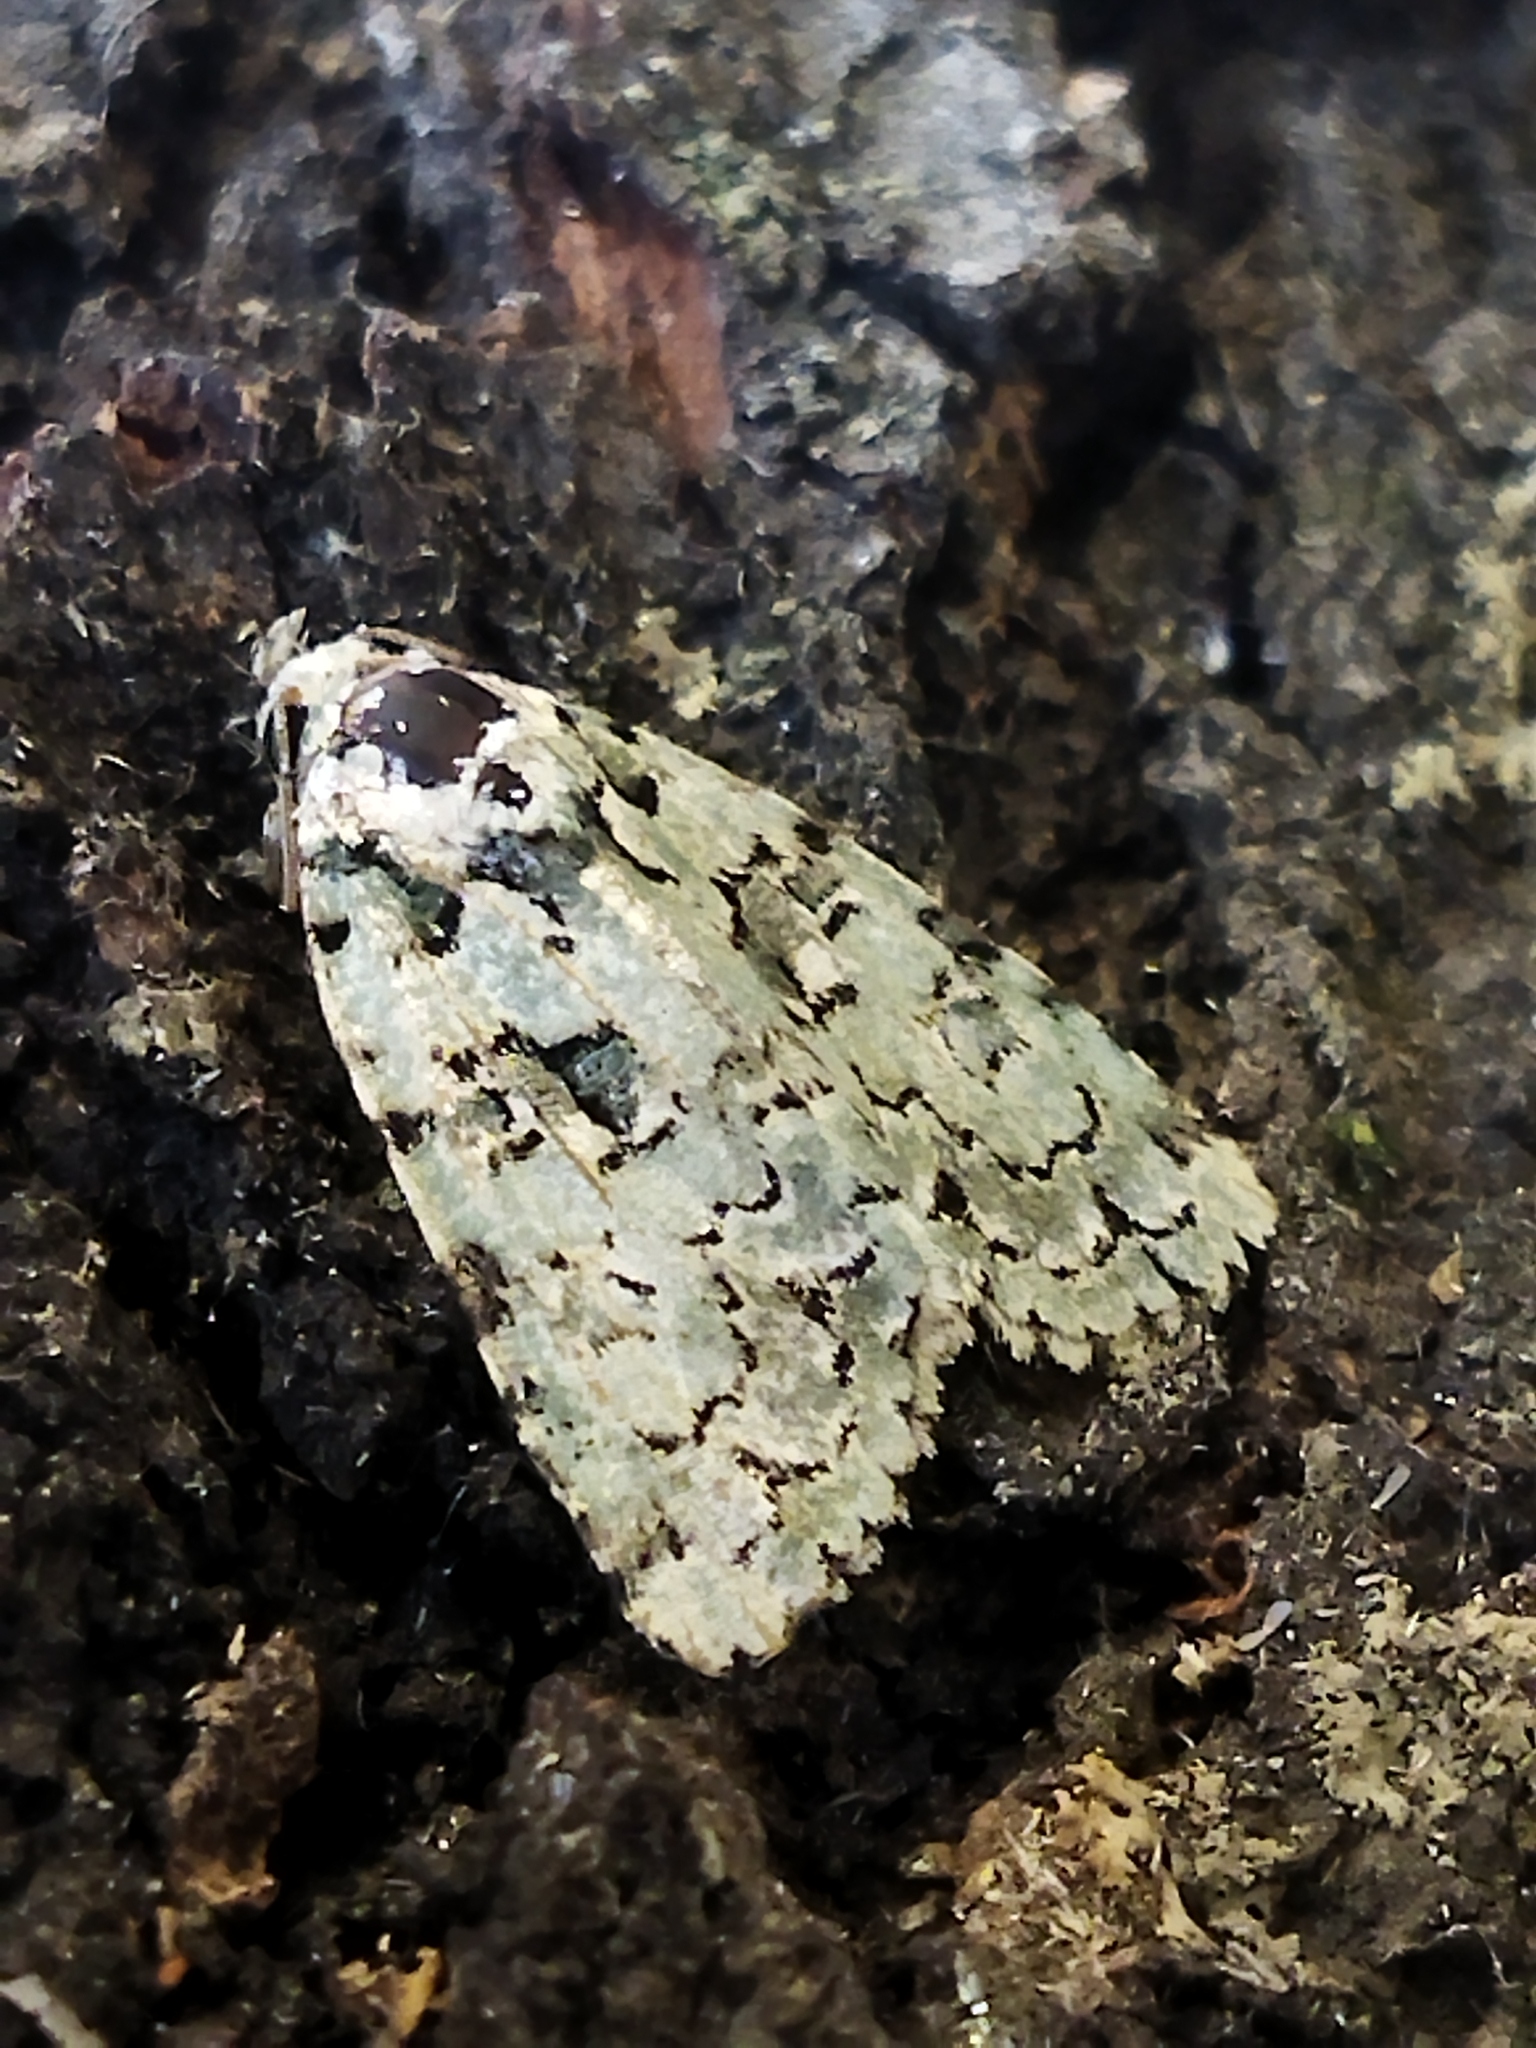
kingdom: Plantae
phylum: Chlorophyta
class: Ulvophyceae
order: Bryopsidales
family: Bryopsidaceae
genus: Bryopsis
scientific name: Bryopsis
